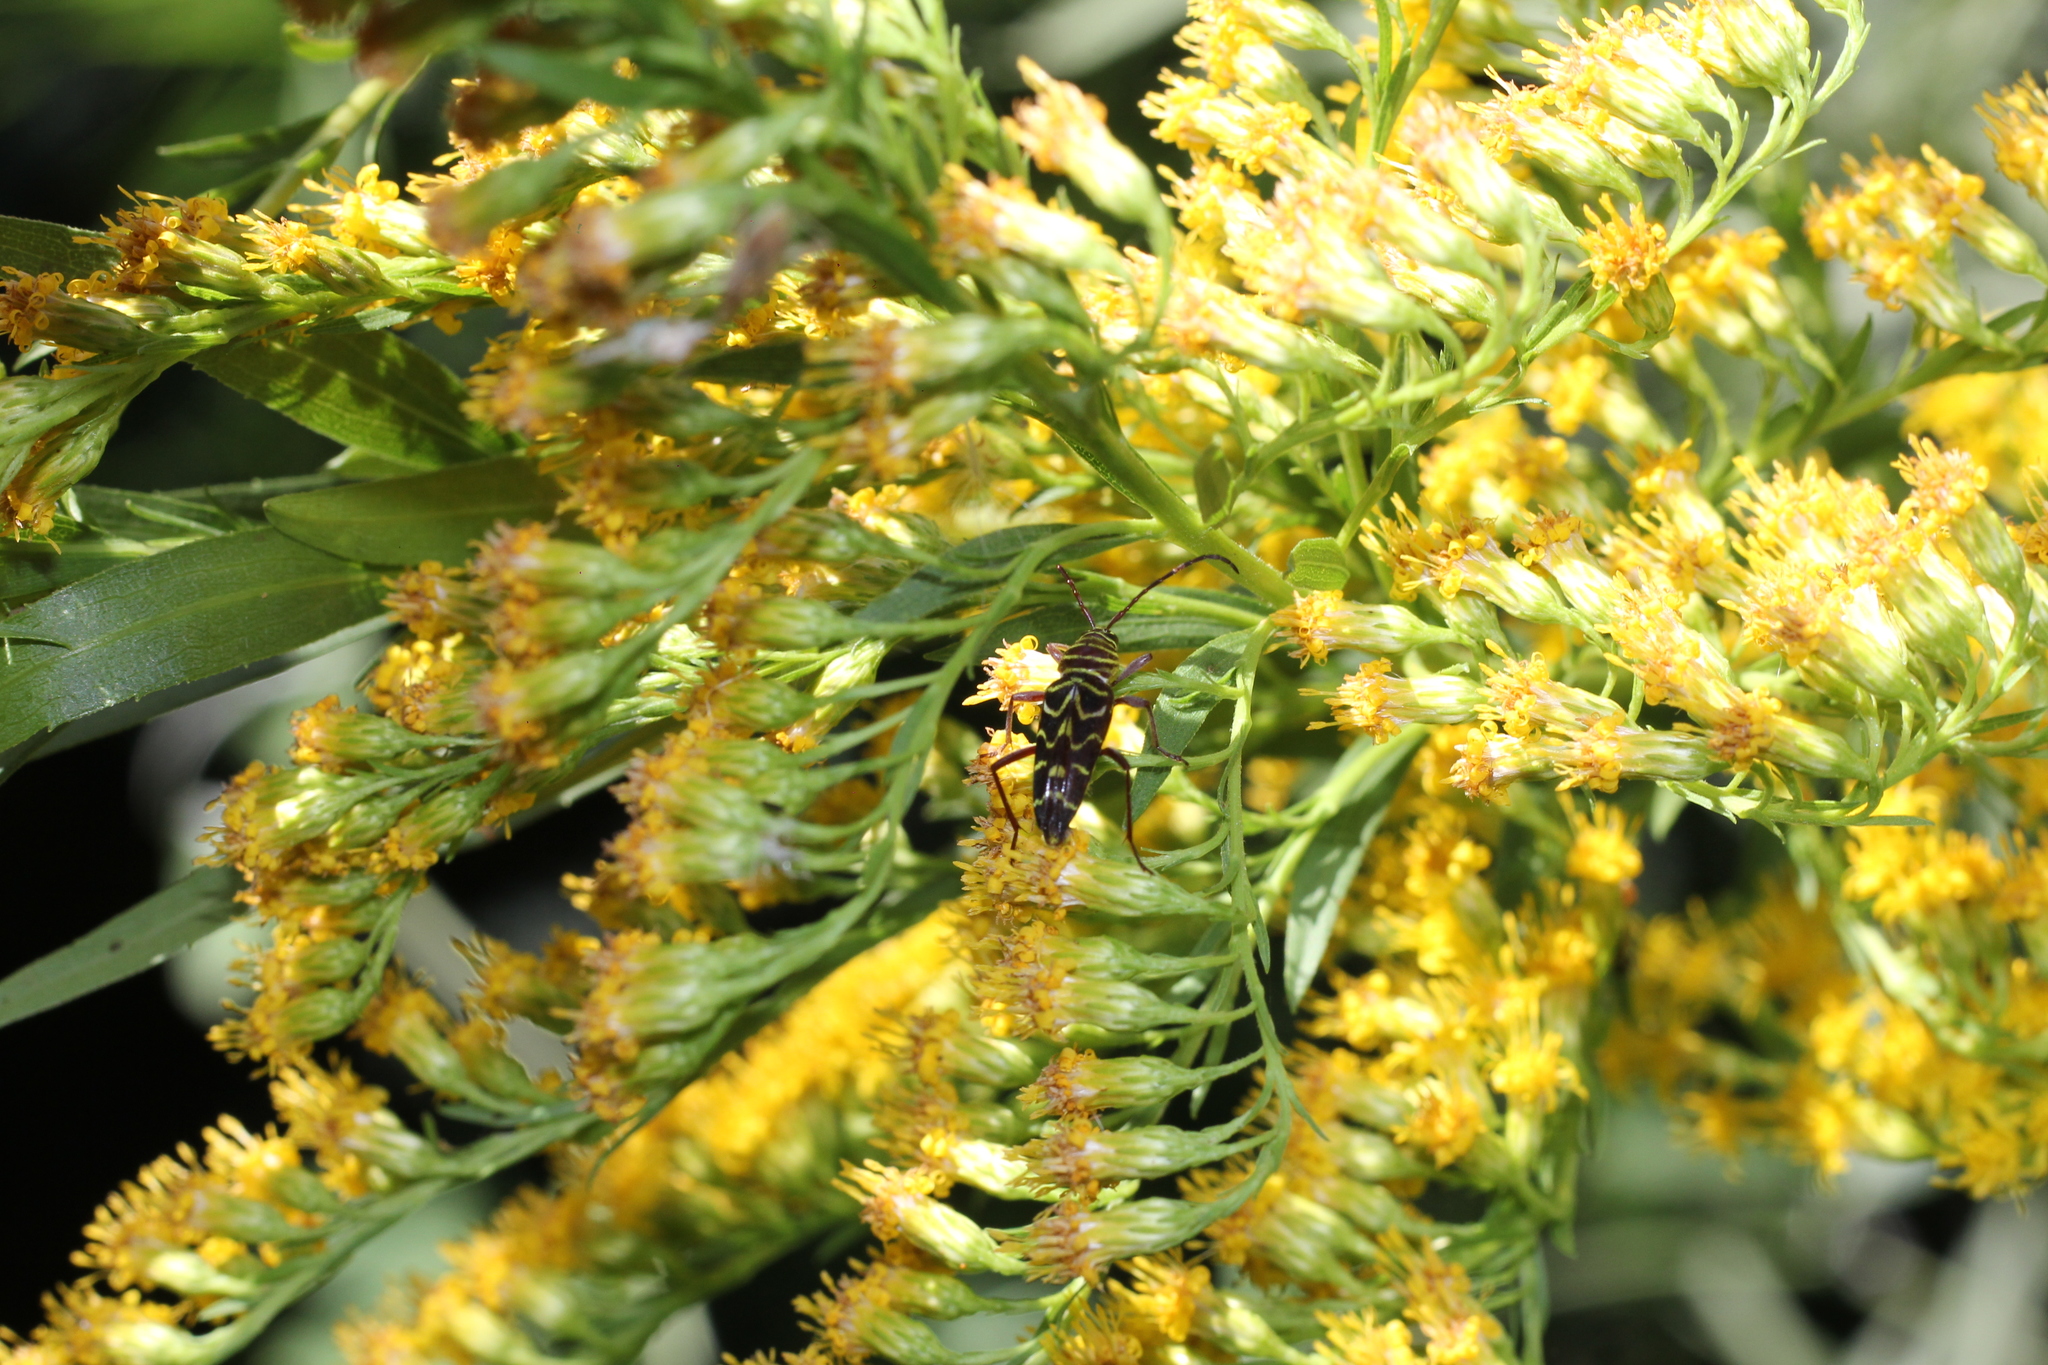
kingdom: Animalia
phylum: Arthropoda
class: Insecta
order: Coleoptera
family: Cerambycidae
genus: Megacyllene
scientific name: Megacyllene acuta
